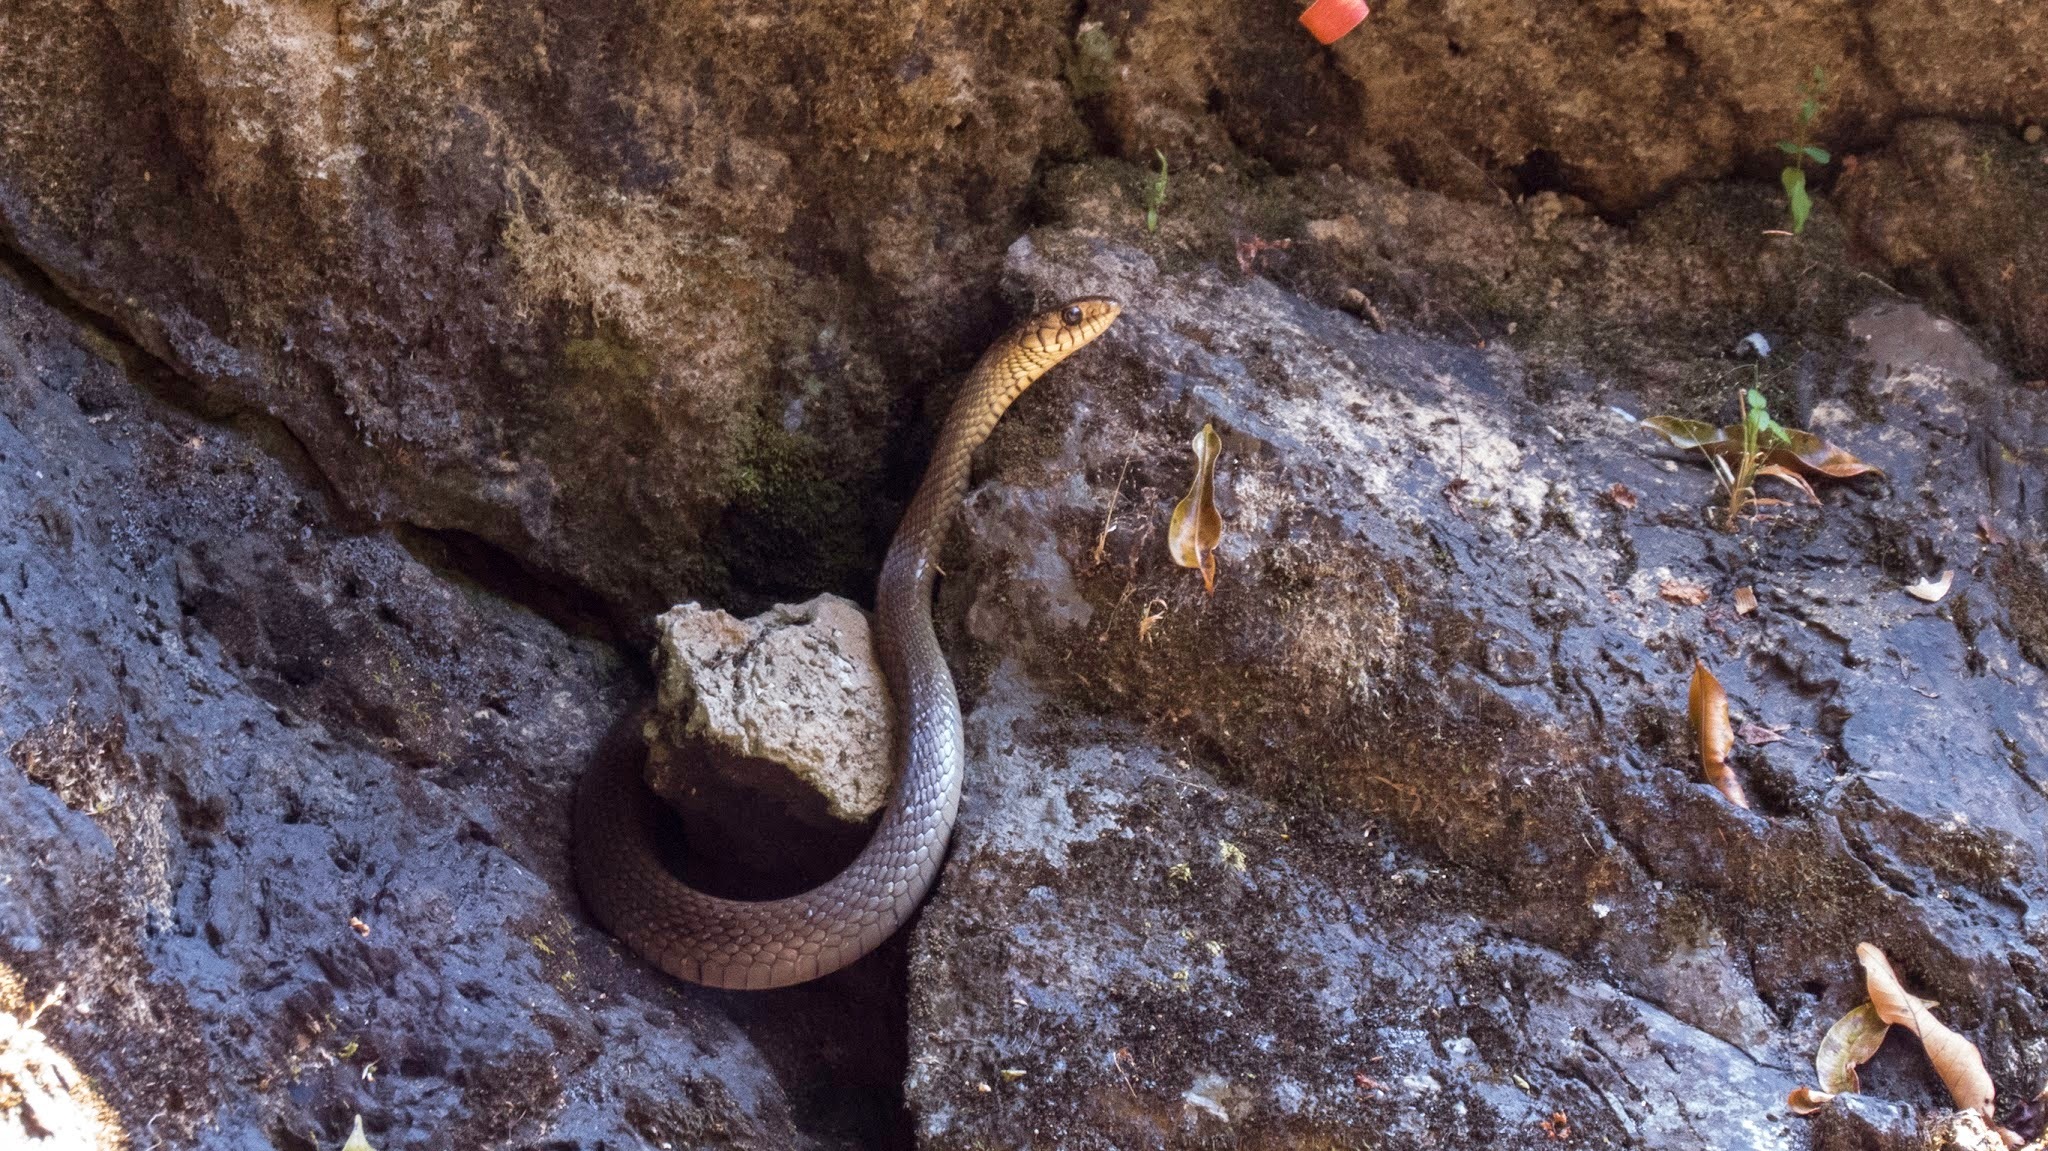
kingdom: Animalia
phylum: Chordata
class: Squamata
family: Colubridae
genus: Ptyas
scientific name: Ptyas mucosa
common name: Oriental ratsnake
